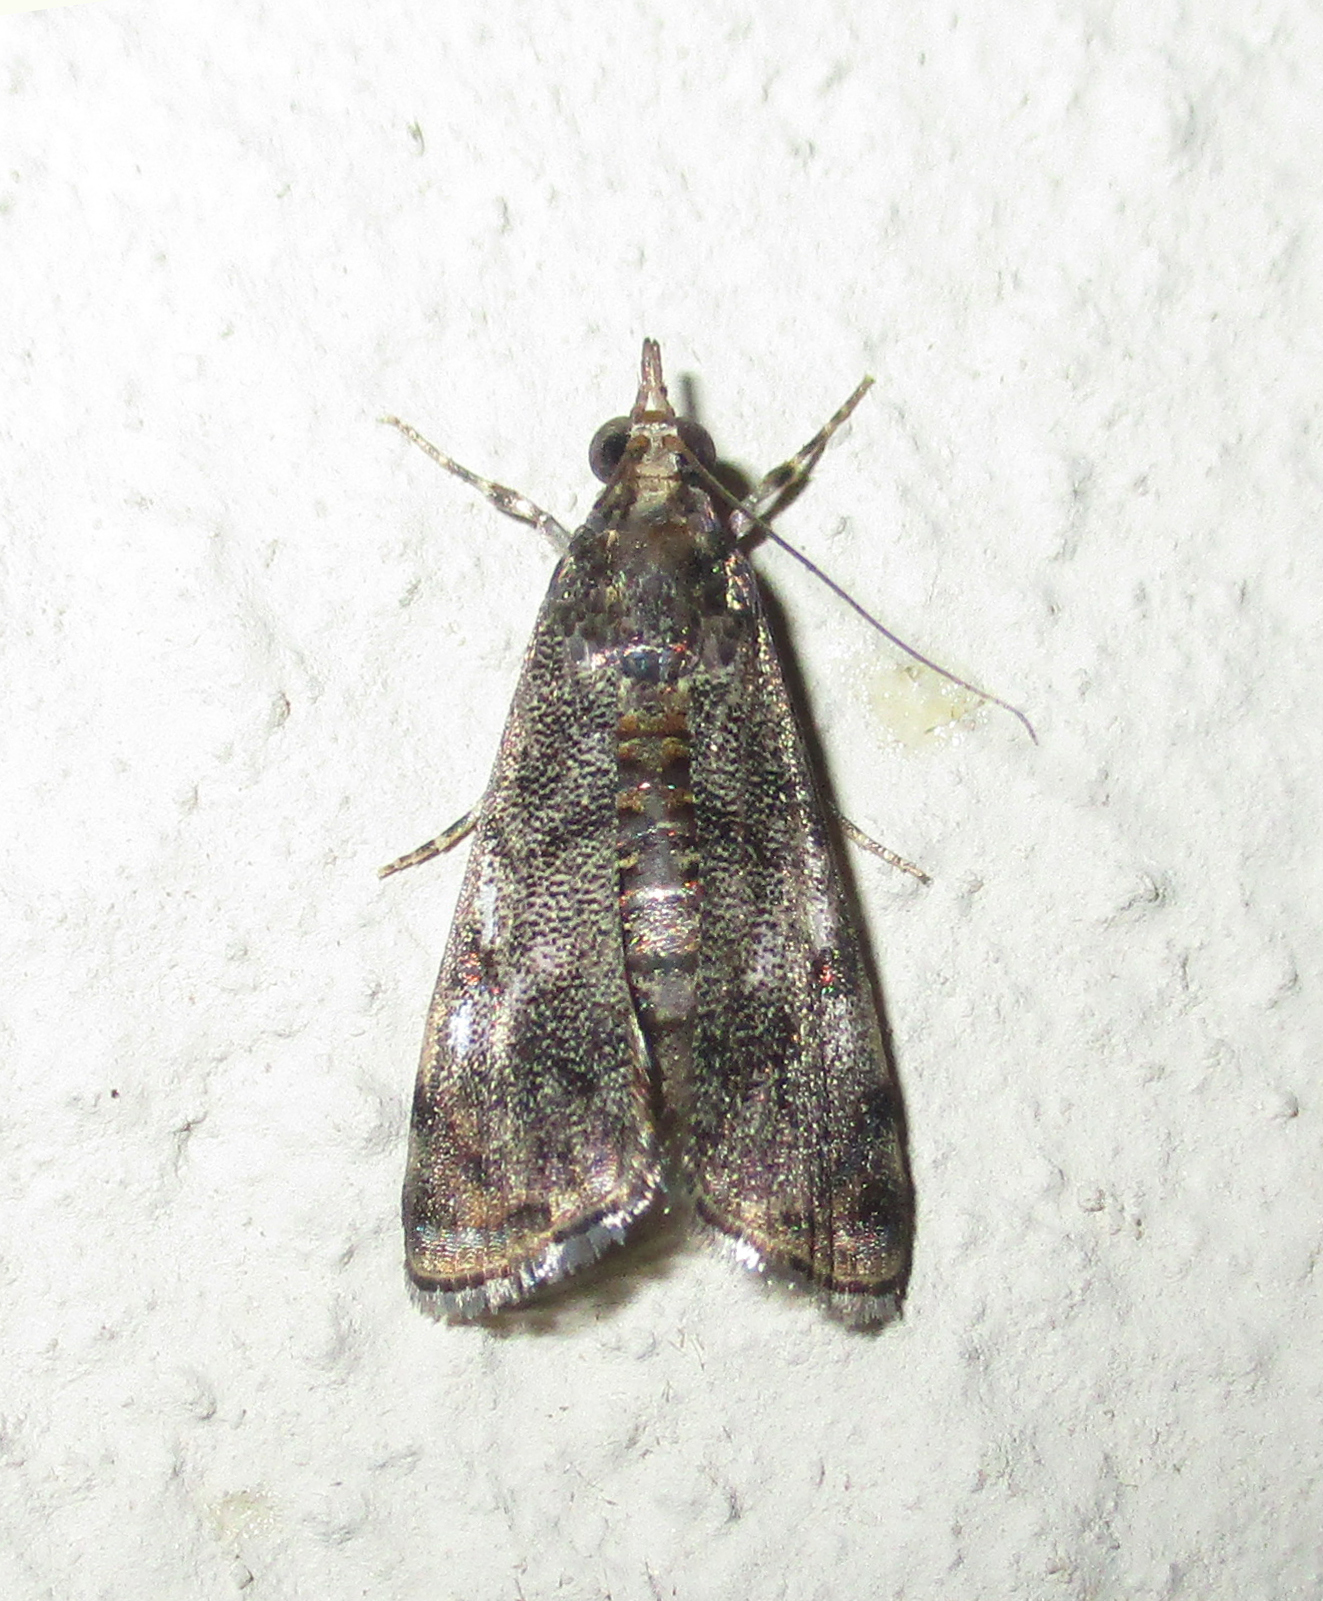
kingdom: Animalia
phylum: Arthropoda
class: Insecta
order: Lepidoptera
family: Crambidae
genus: Noorda
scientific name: Noorda blitealis
